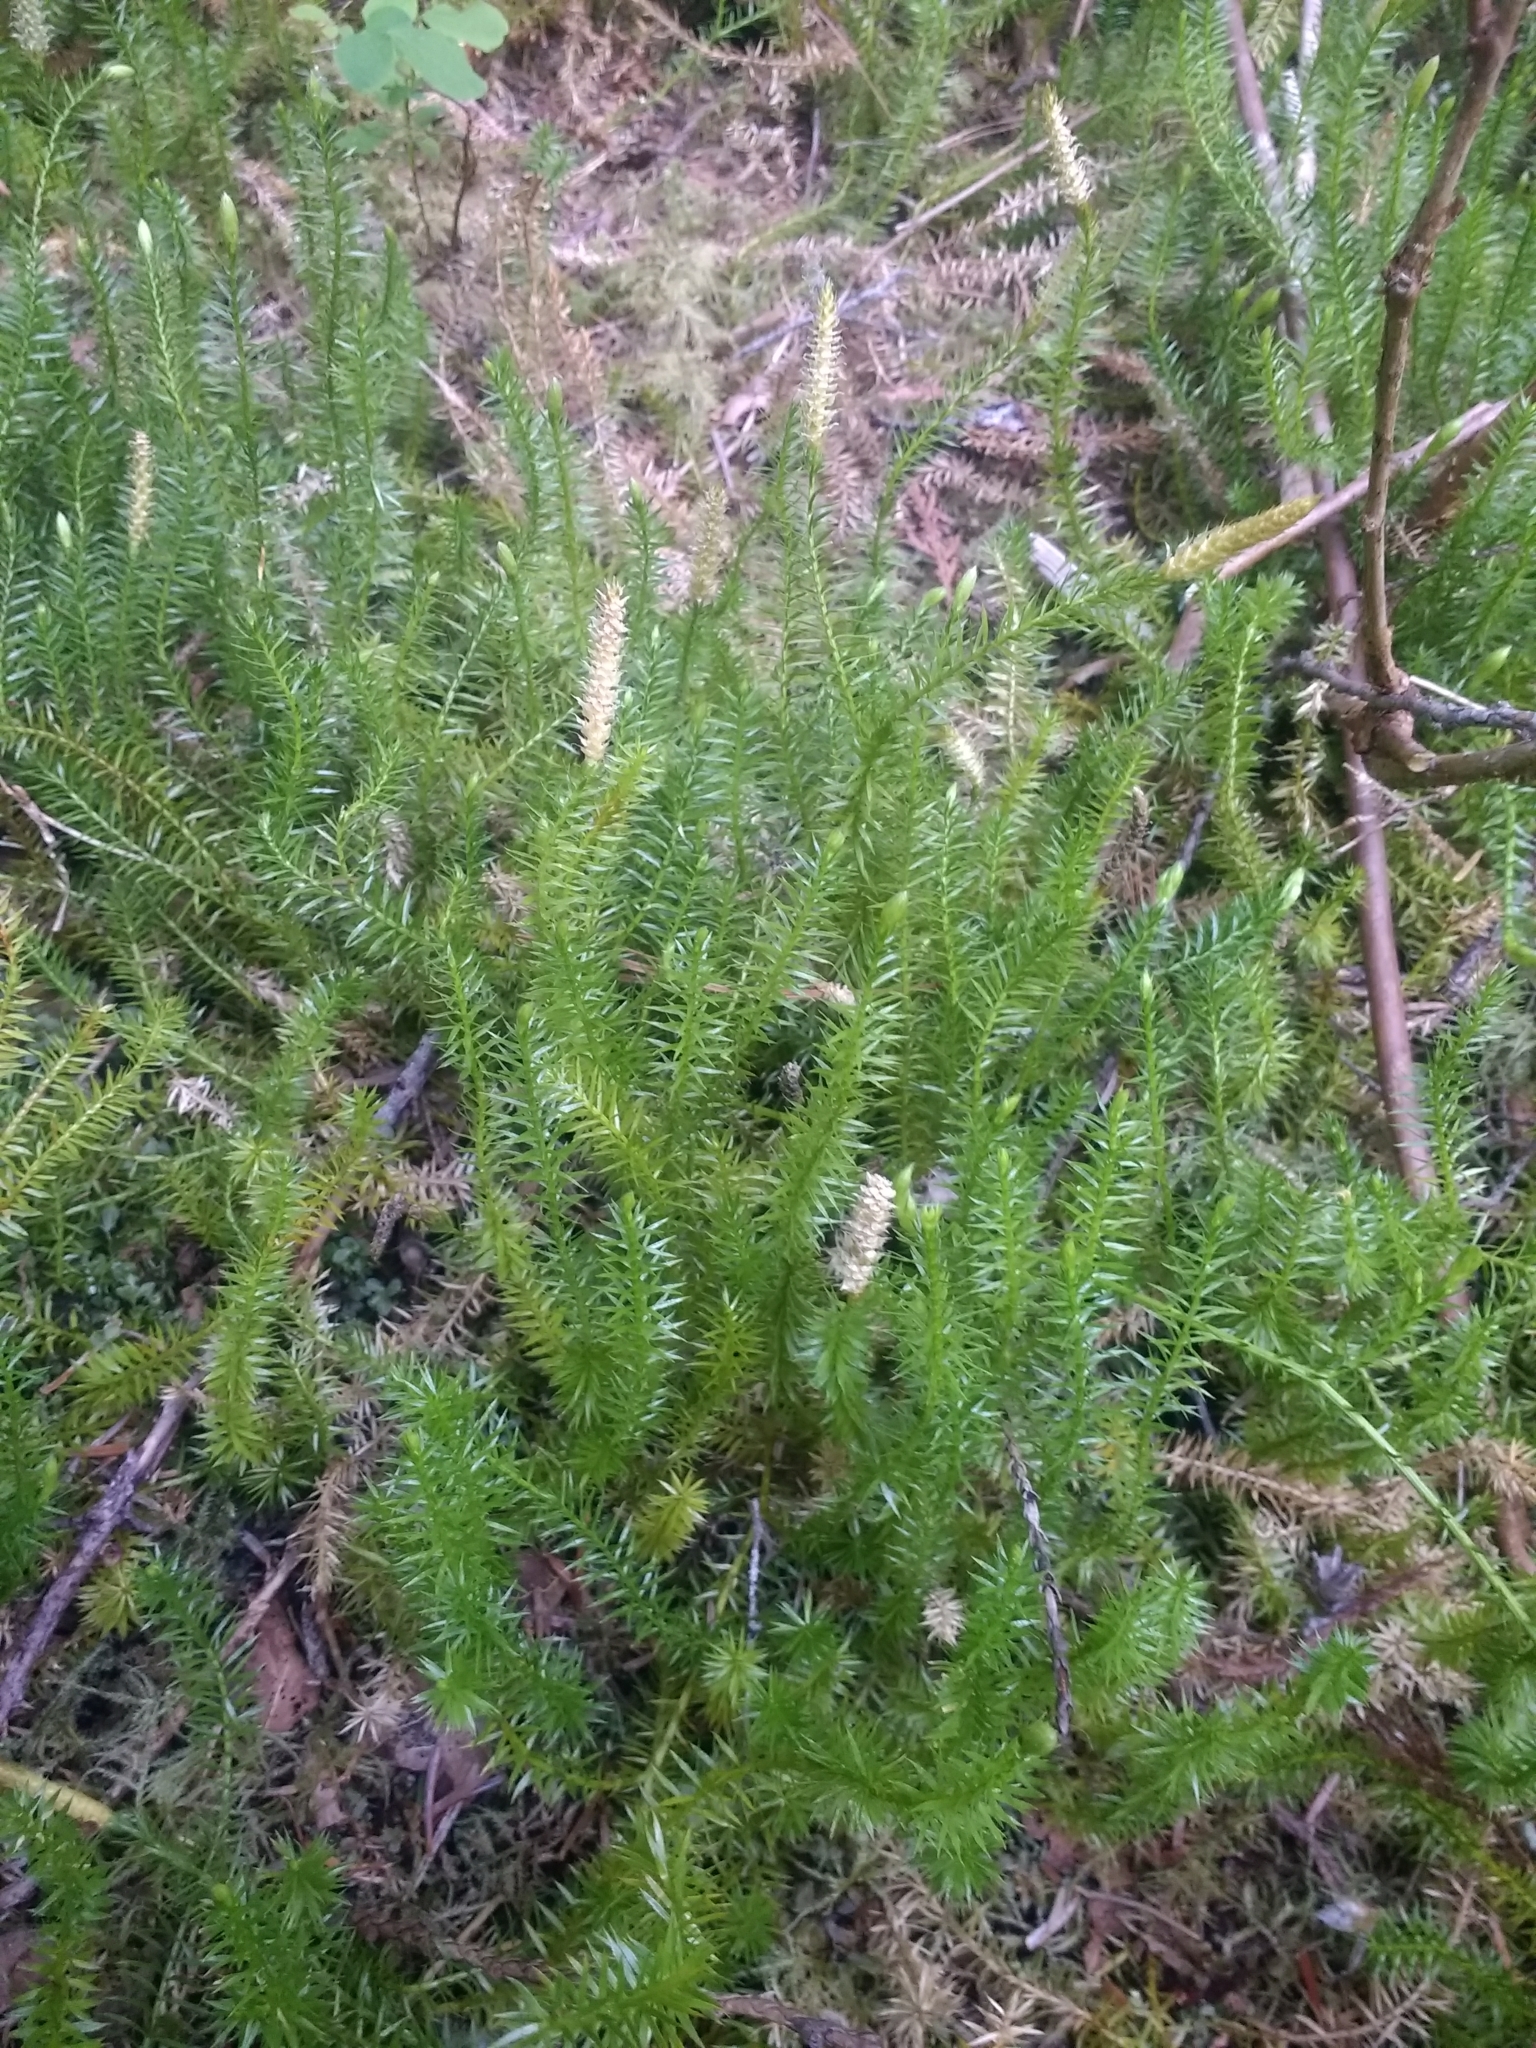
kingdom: Plantae
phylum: Tracheophyta
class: Lycopodiopsida
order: Lycopodiales
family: Lycopodiaceae
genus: Spinulum
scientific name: Spinulum annotinum
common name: Interrupted club-moss
